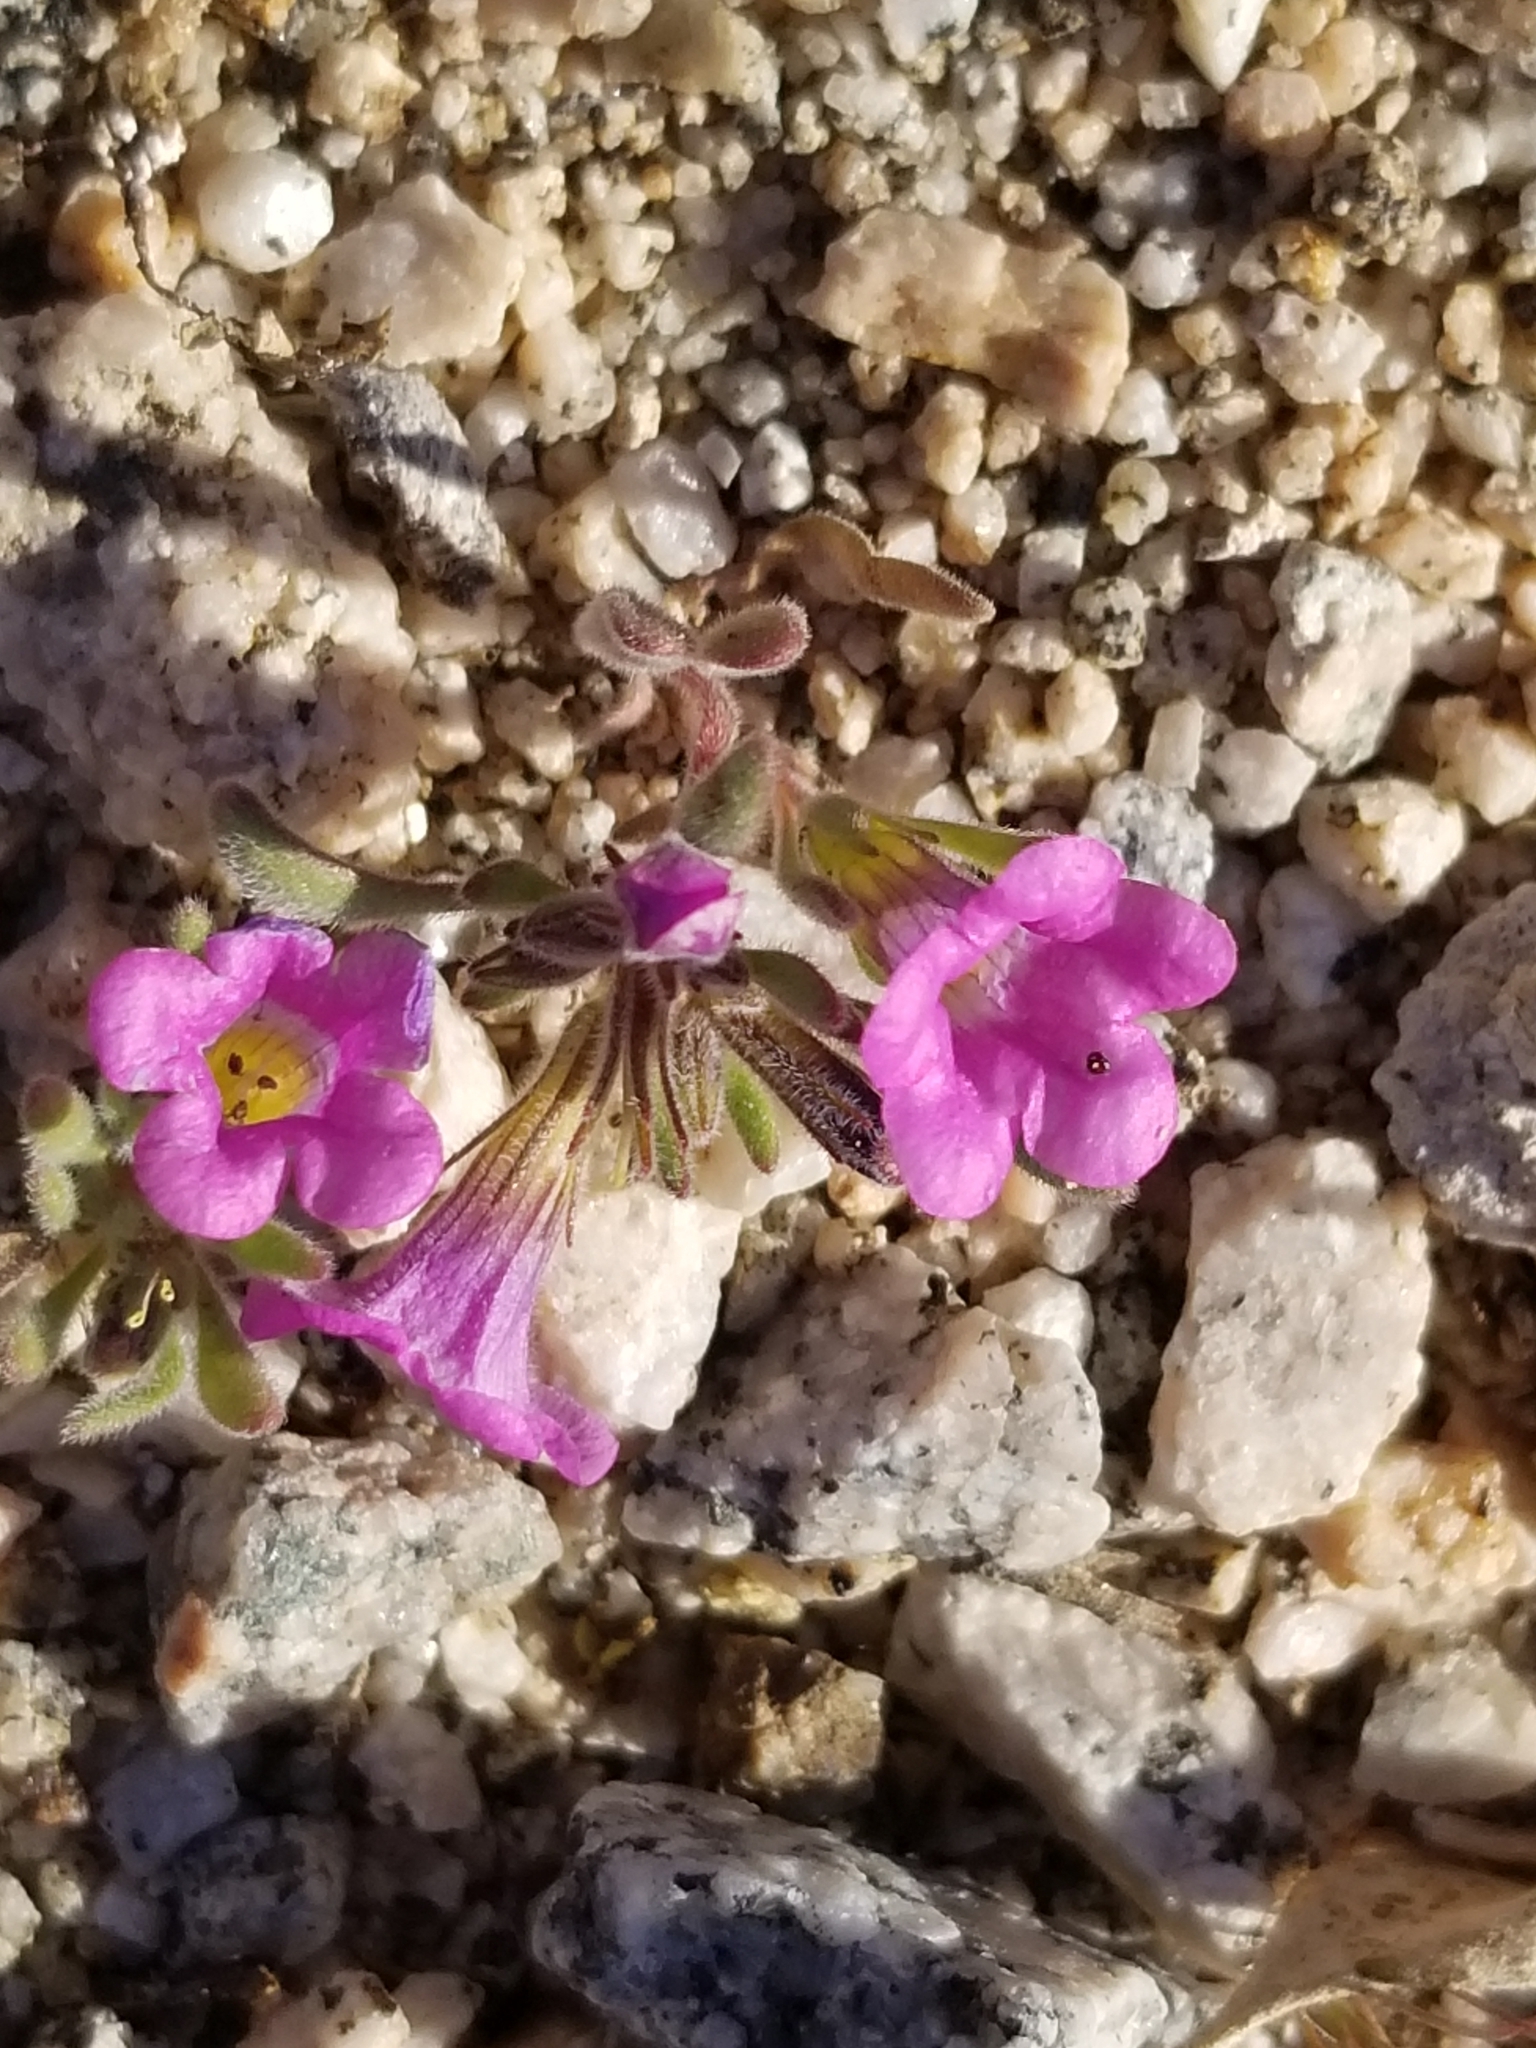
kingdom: Plantae
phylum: Tracheophyta
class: Magnoliopsida
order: Boraginales
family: Namaceae
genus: Nama
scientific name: Nama demissa
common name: Leafy nama
